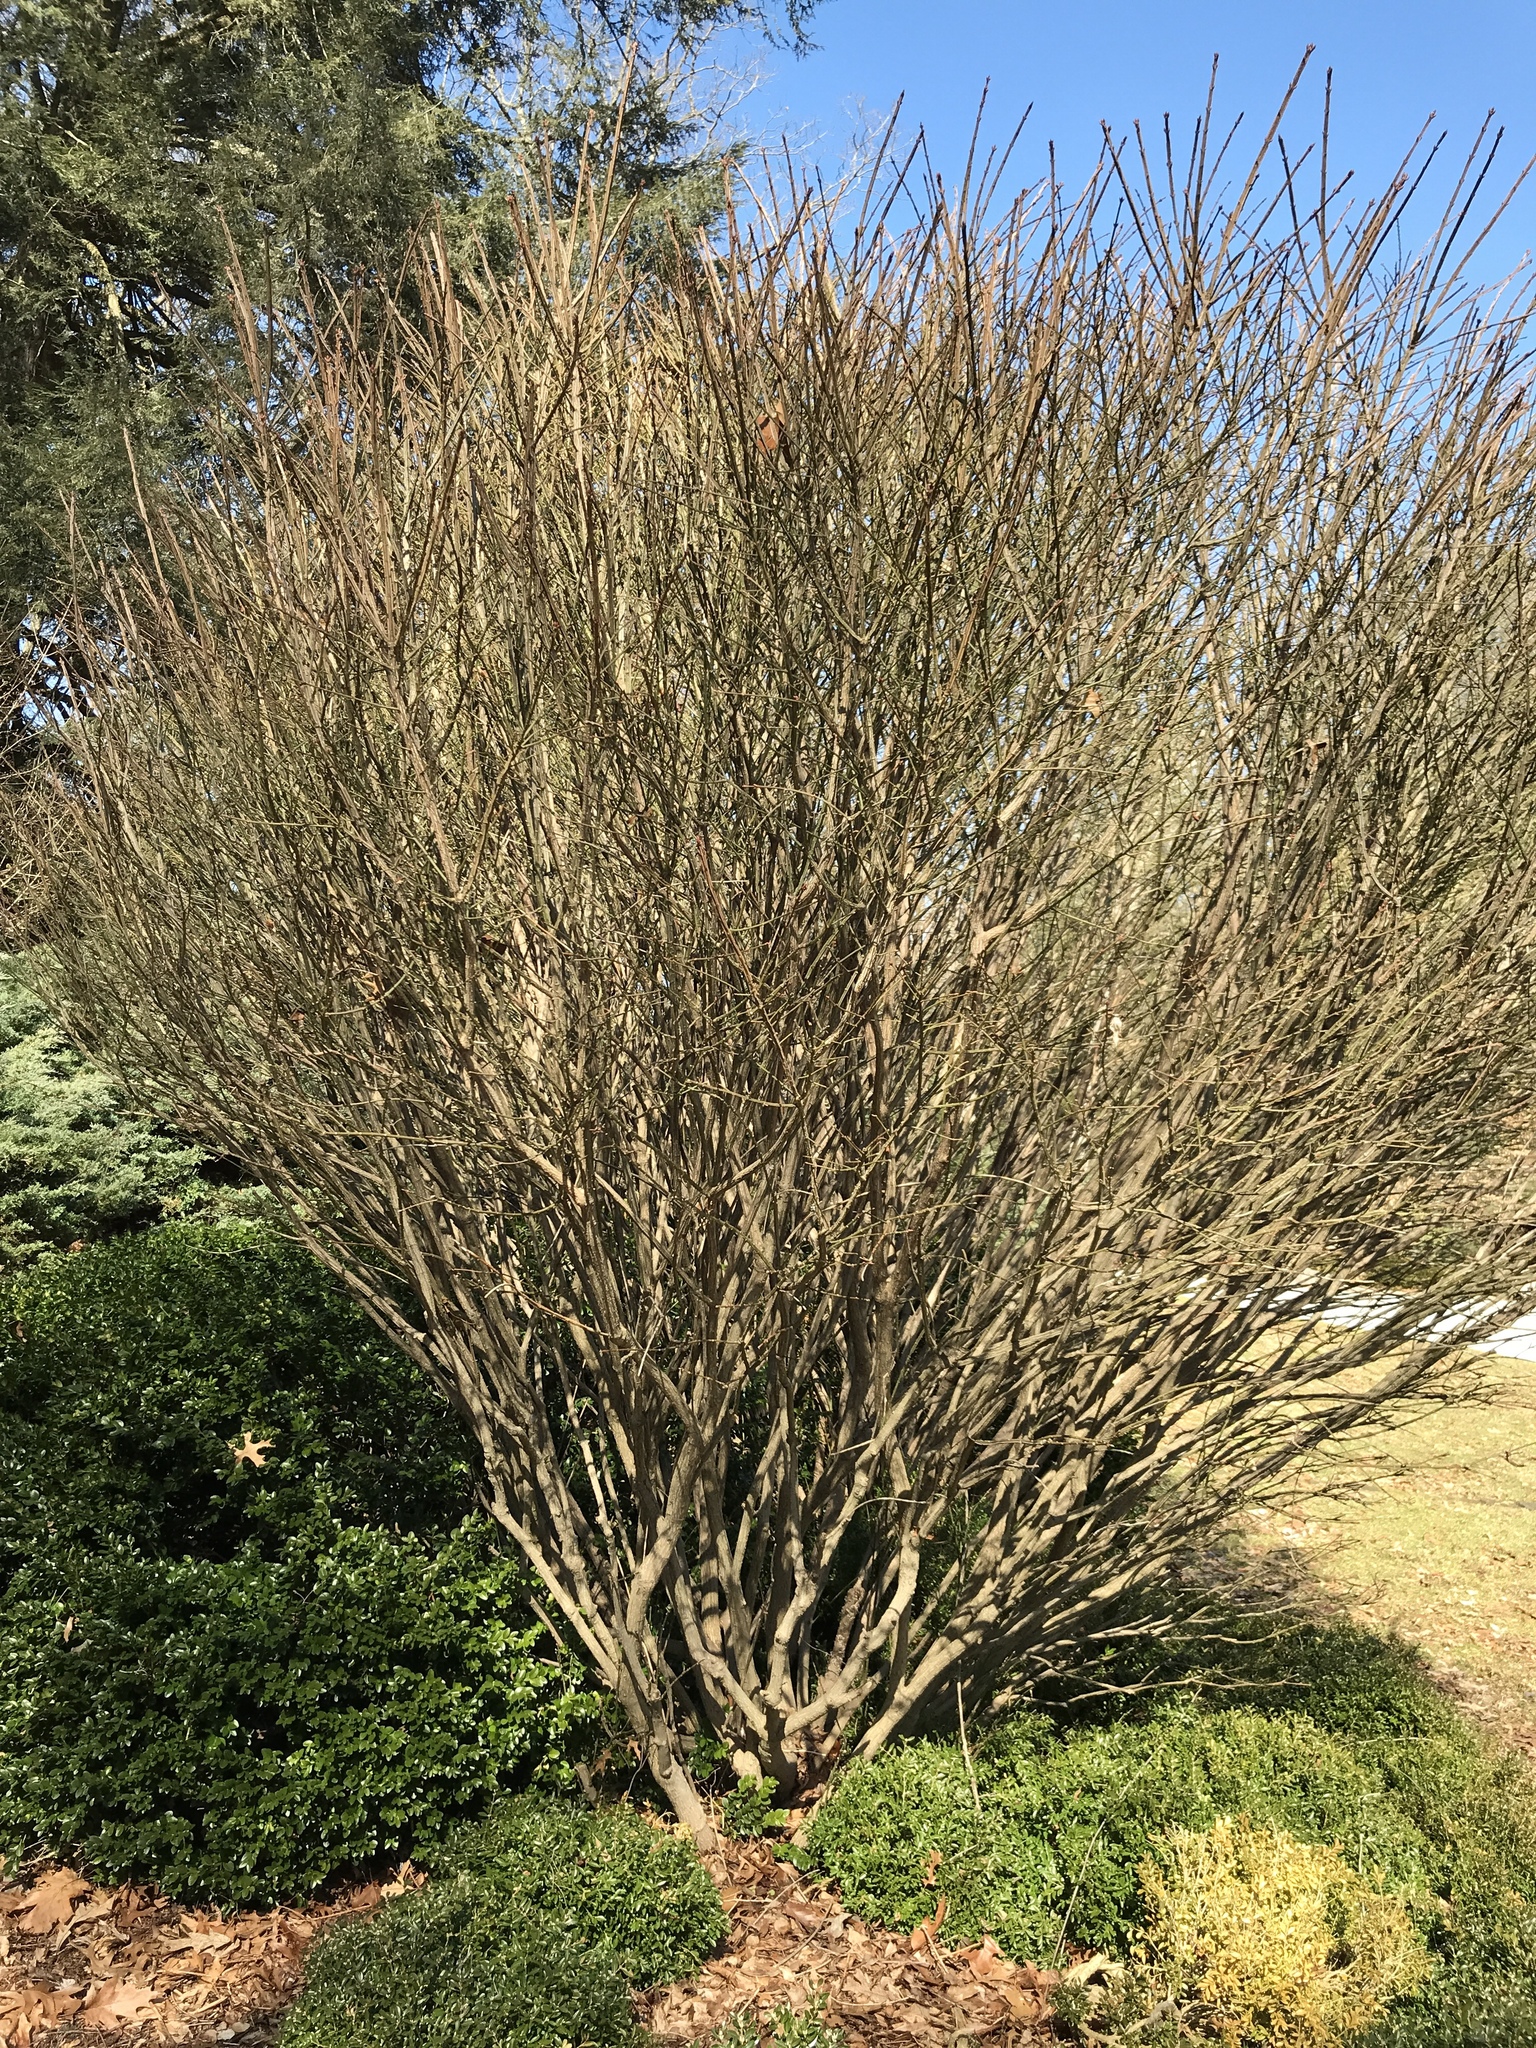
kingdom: Plantae
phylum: Tracheophyta
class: Magnoliopsida
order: Celastrales
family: Celastraceae
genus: Euonymus
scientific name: Euonymus alatus
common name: Winged euonymus
